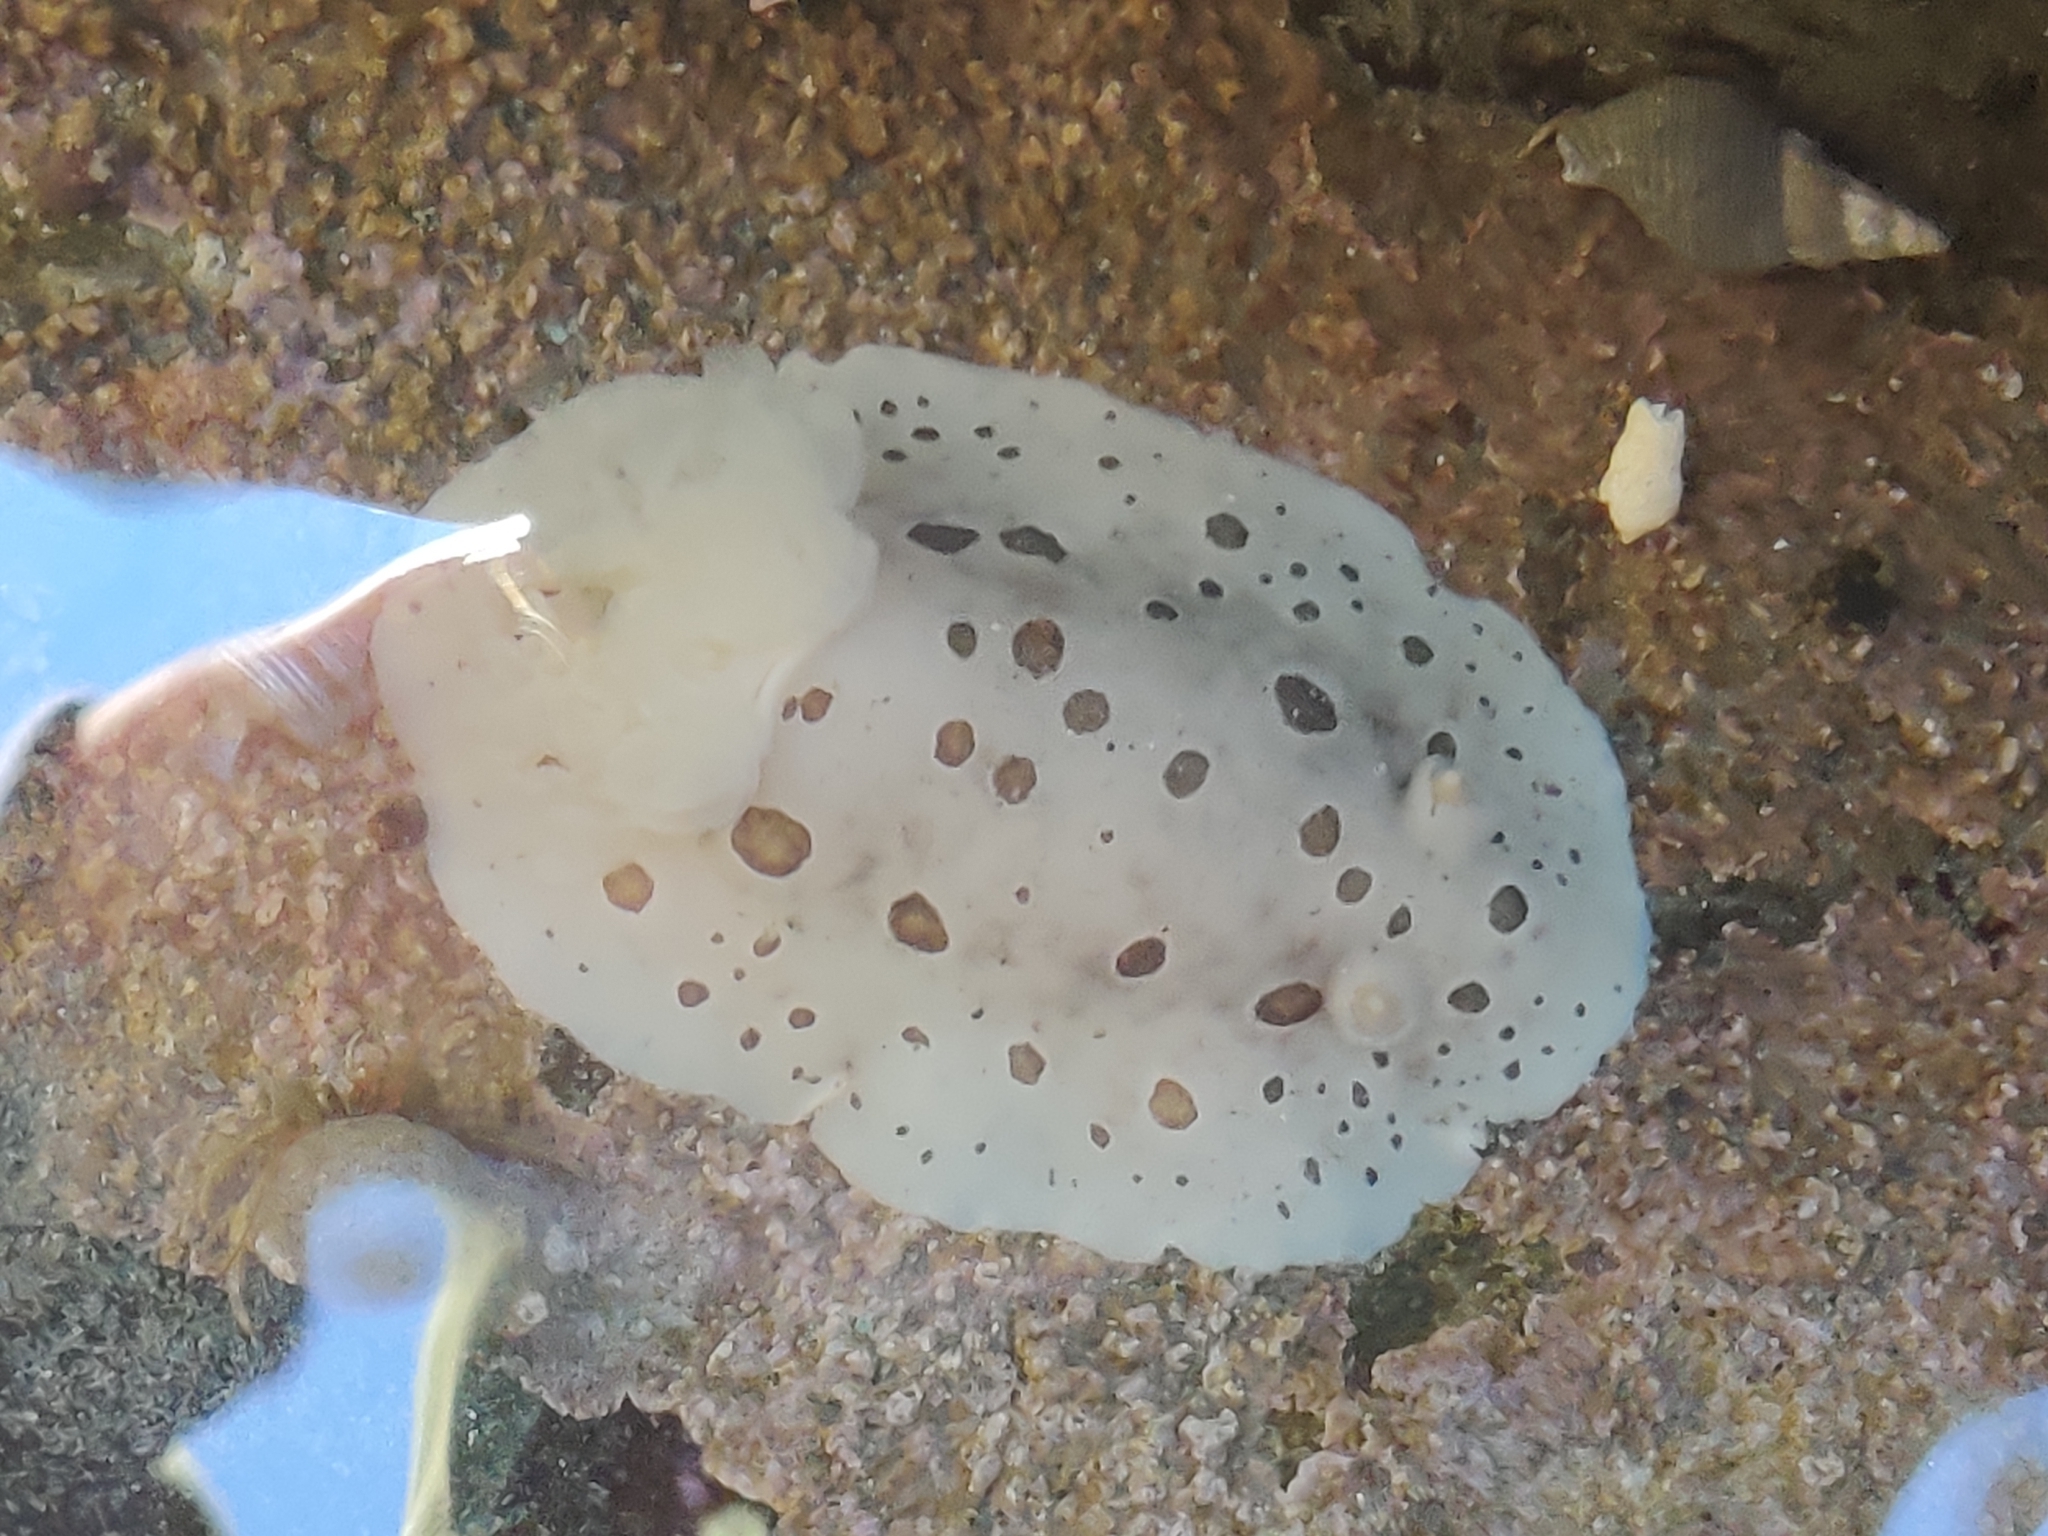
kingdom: Animalia
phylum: Mollusca
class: Gastropoda
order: Nudibranchia
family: Discodorididae
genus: Diaulula
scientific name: Diaulula odonoghuei
